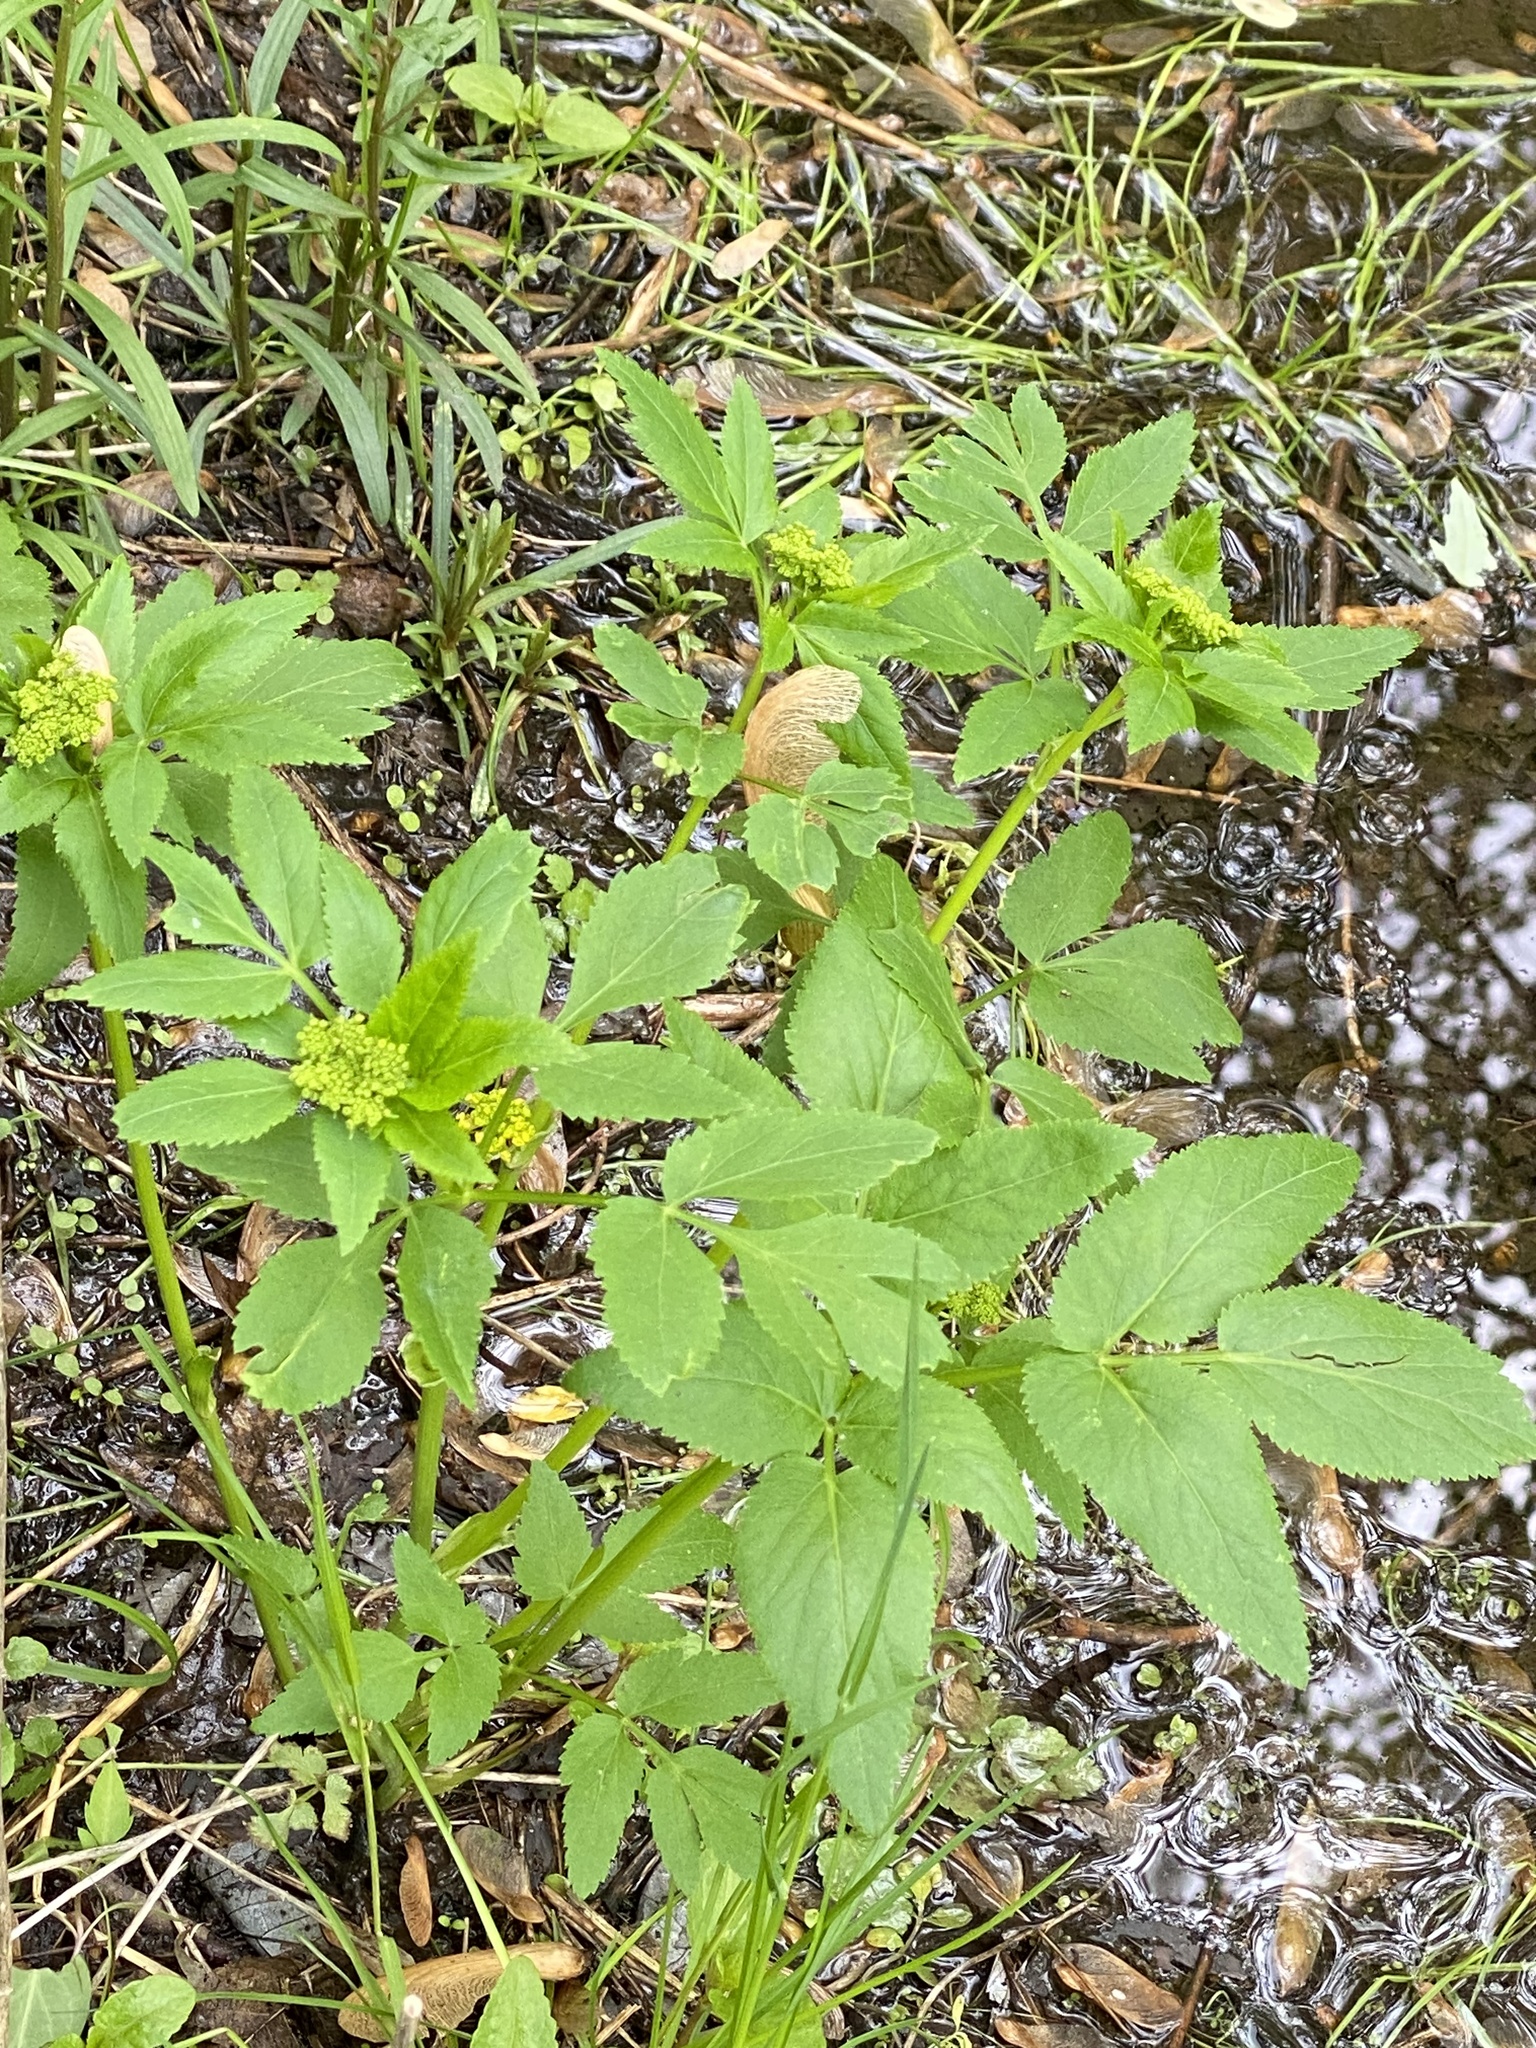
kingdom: Plantae
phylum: Tracheophyta
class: Magnoliopsida
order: Apiales
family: Apiaceae
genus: Zizia
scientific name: Zizia aurea
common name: Golden alexanders
